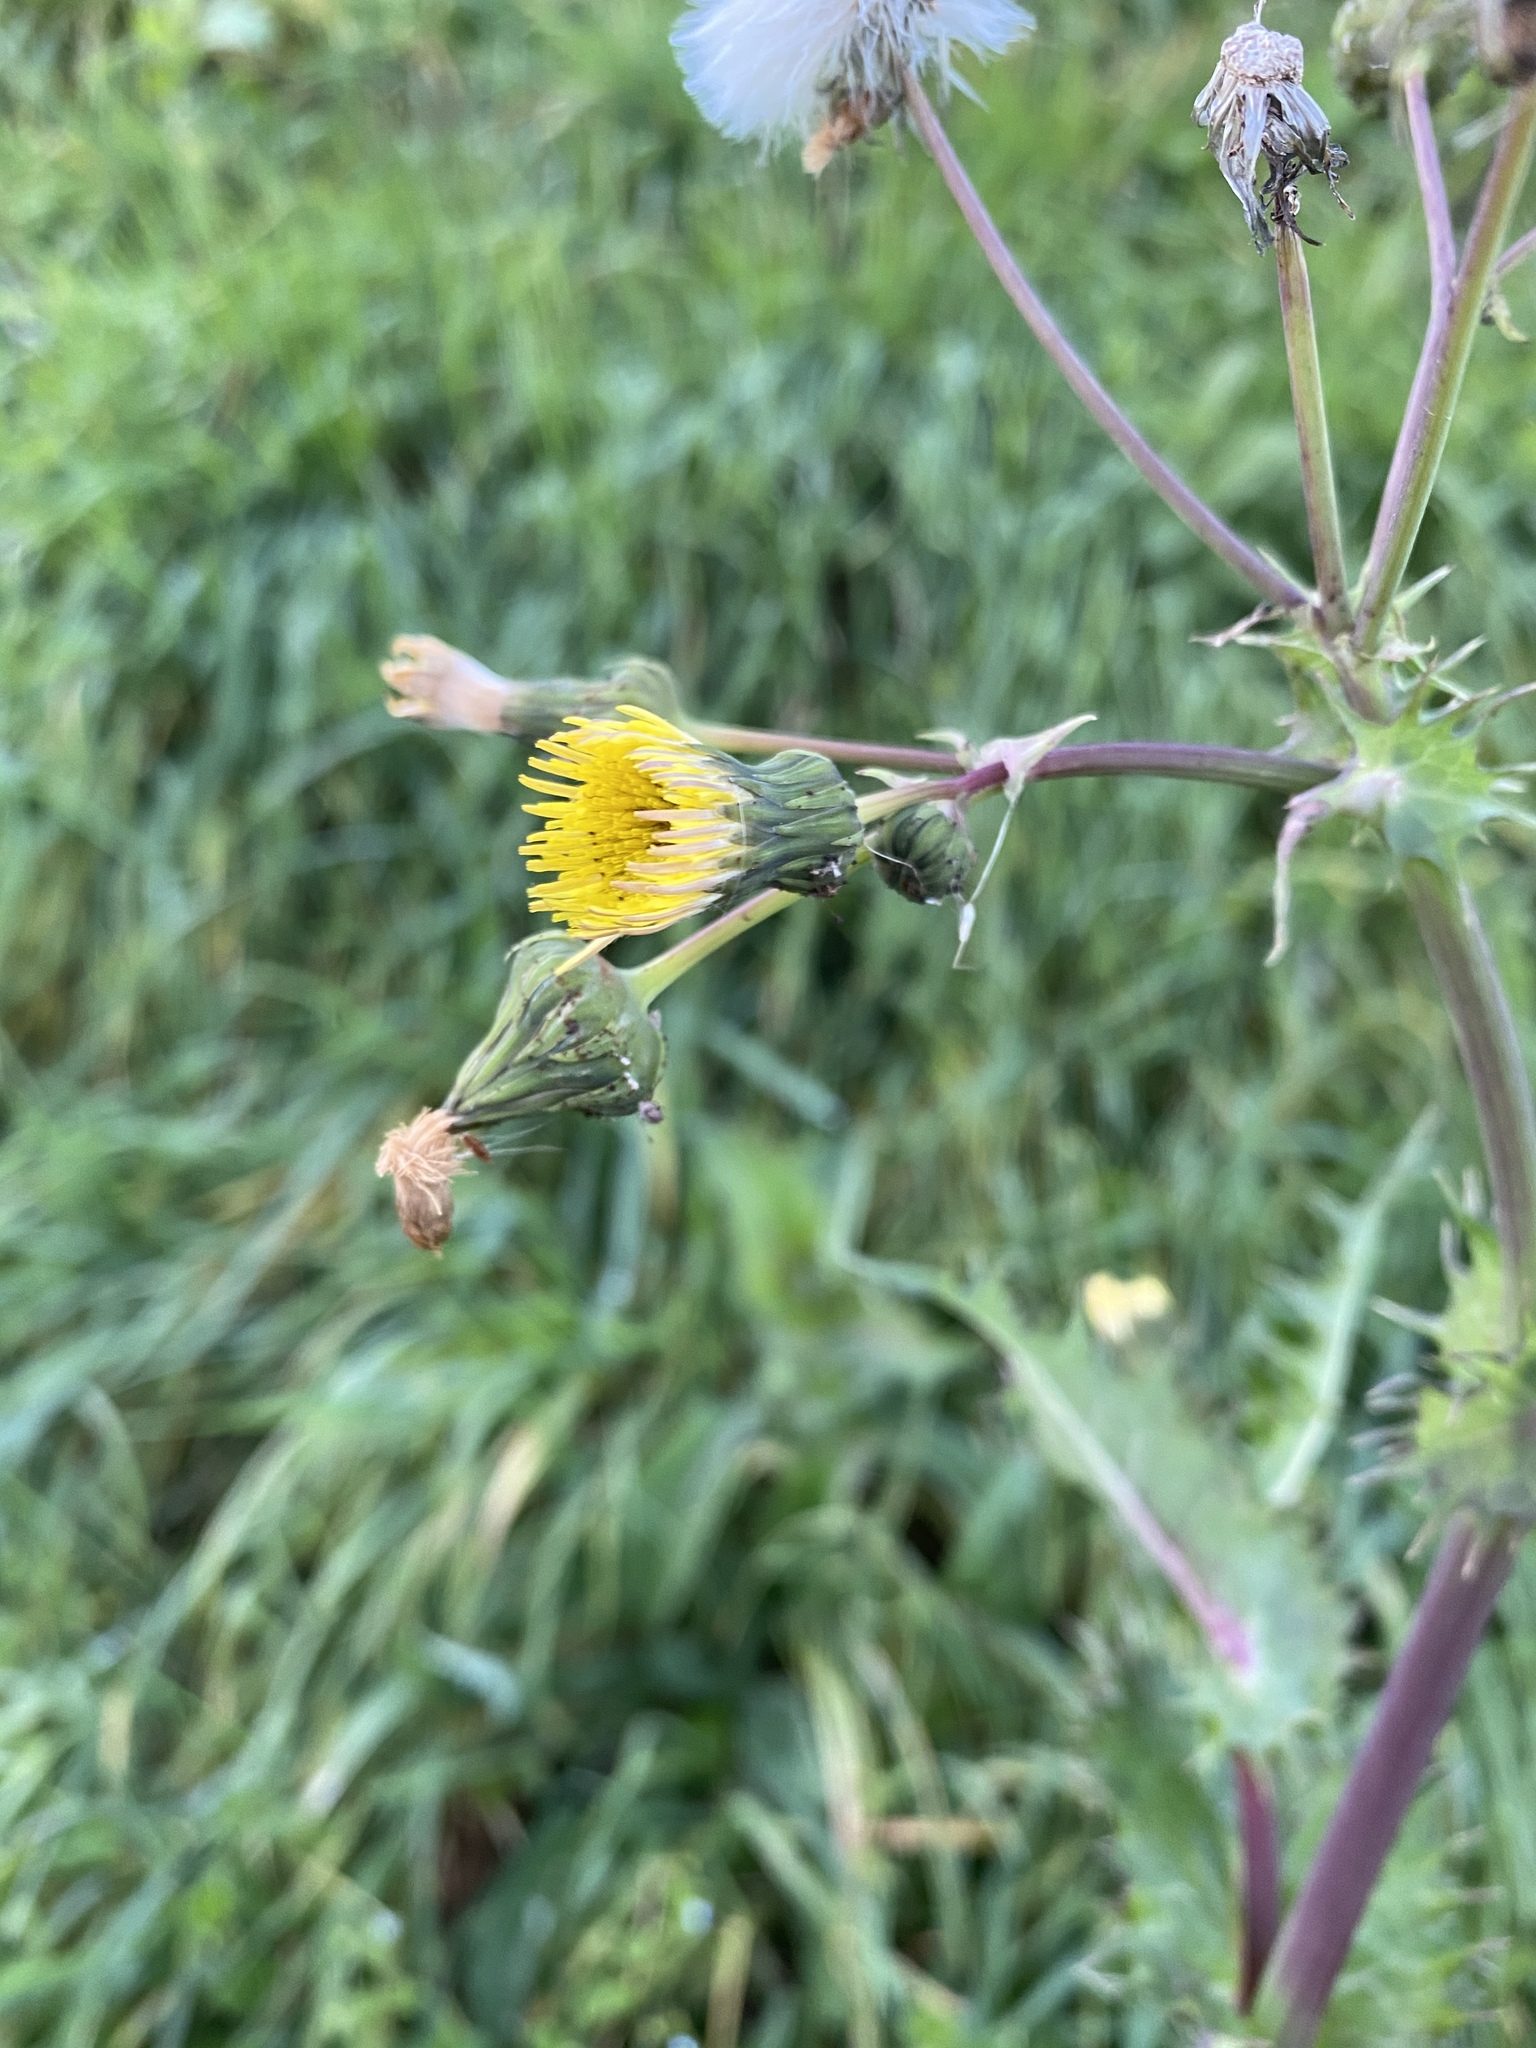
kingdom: Plantae
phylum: Tracheophyta
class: Magnoliopsida
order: Asterales
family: Asteraceae
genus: Sonchus
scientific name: Sonchus asper
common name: Prickly sow-thistle
